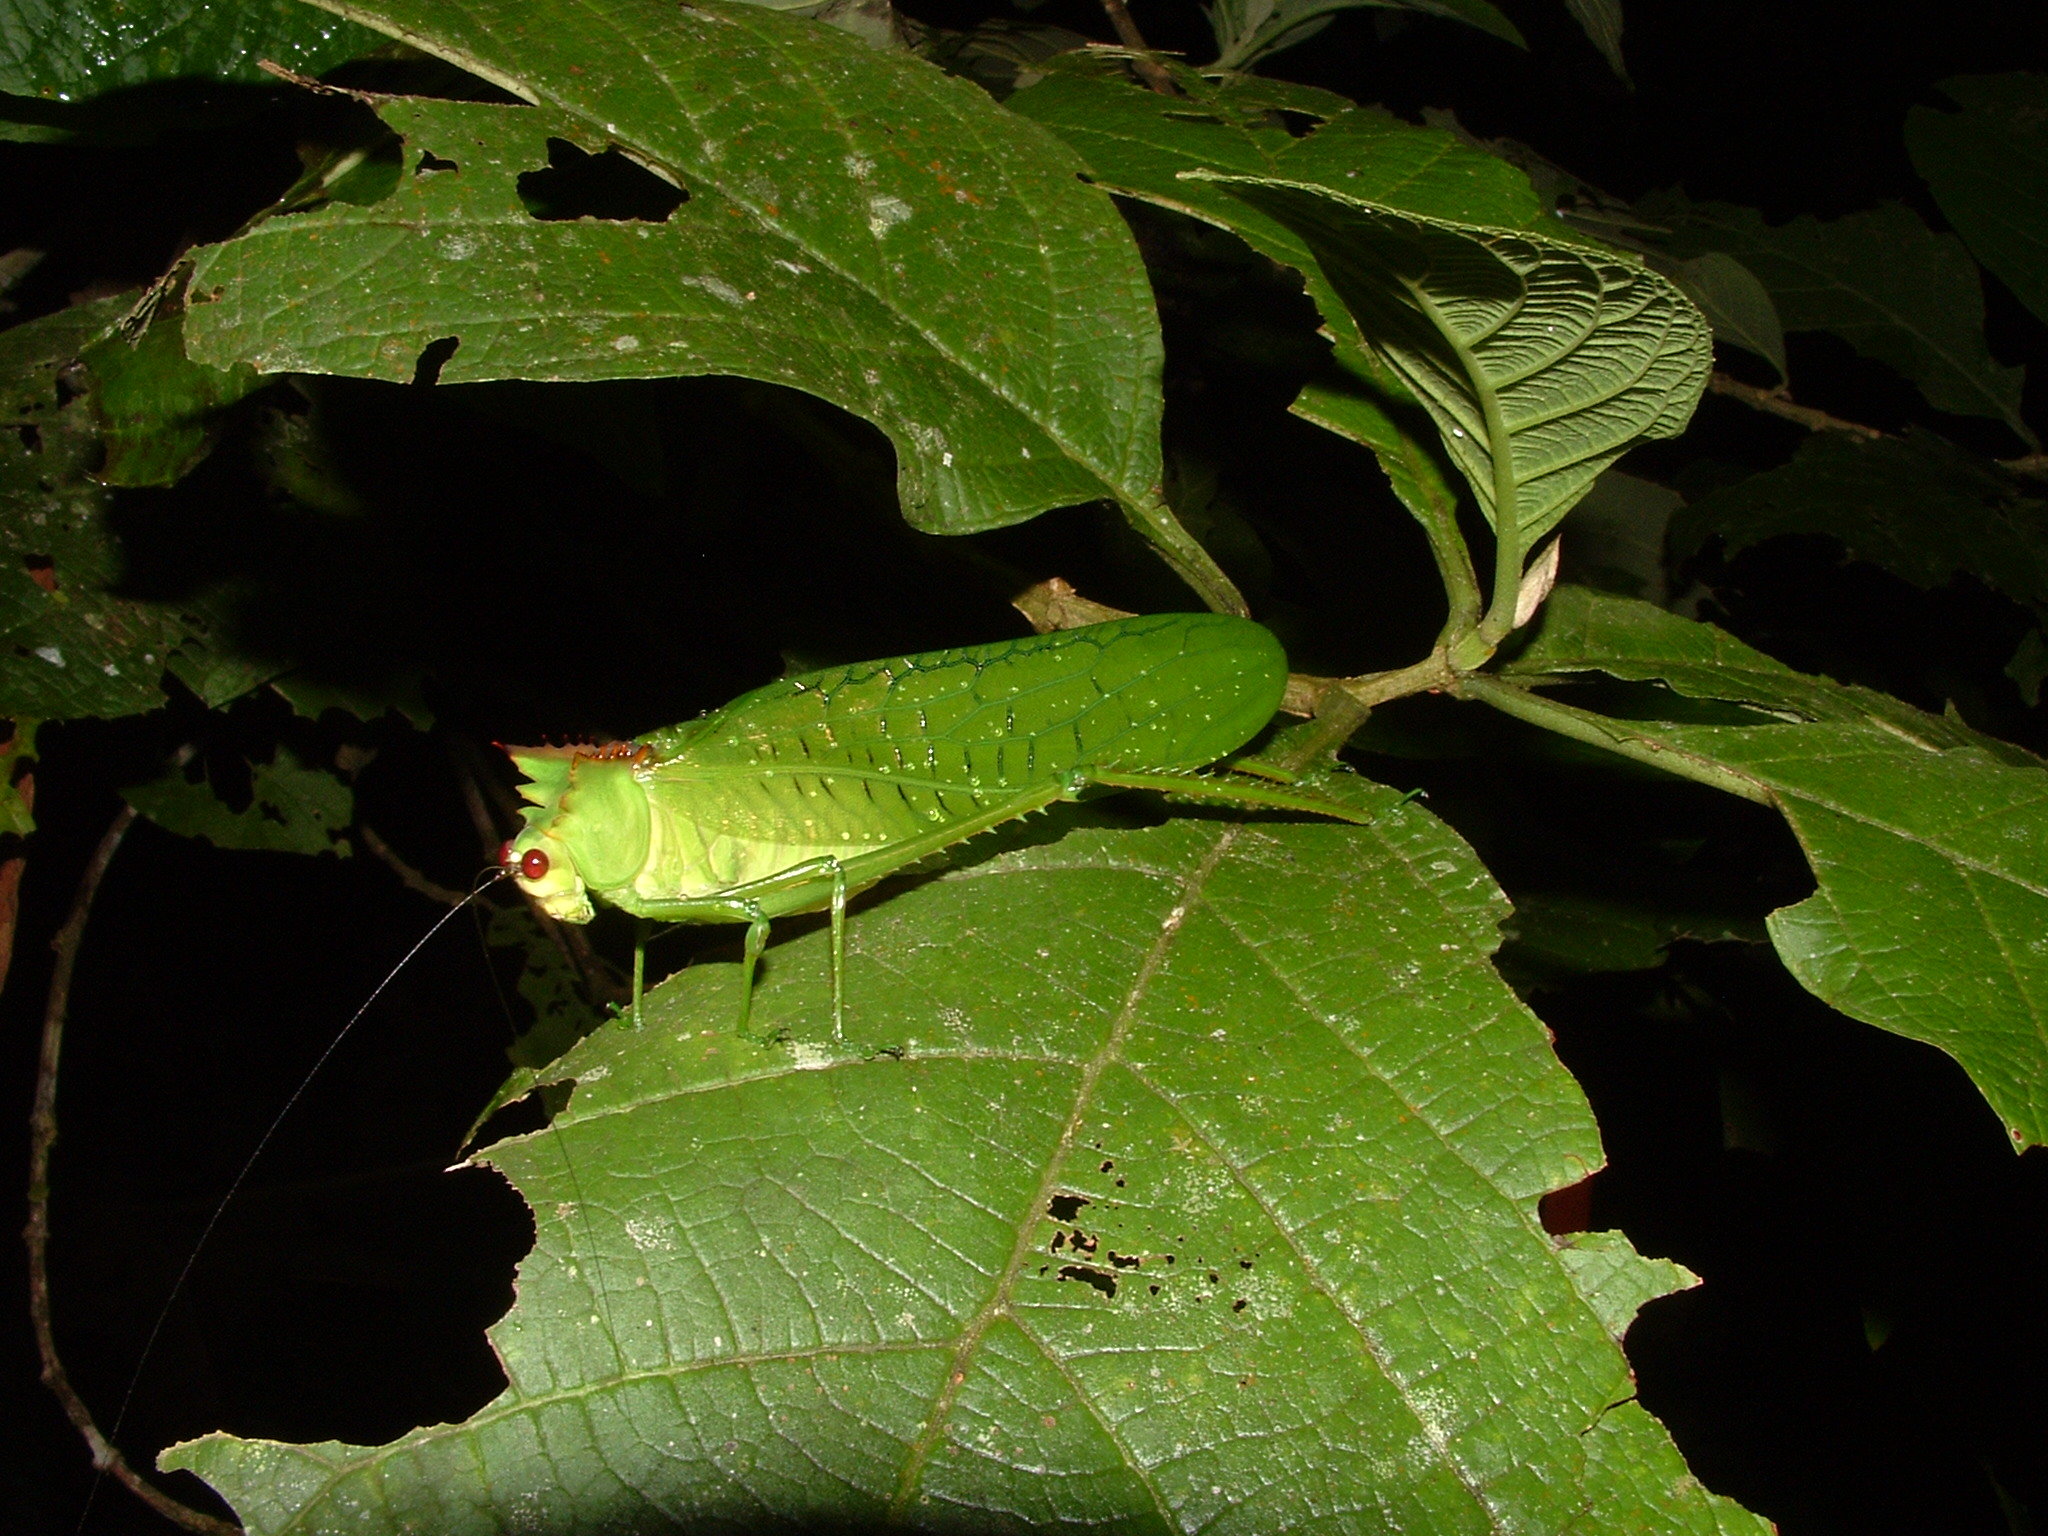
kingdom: Animalia
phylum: Arthropoda
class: Insecta
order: Orthoptera
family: Tettigoniidae
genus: Nicklephyllum
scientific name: Nicklephyllum acanthonotum
